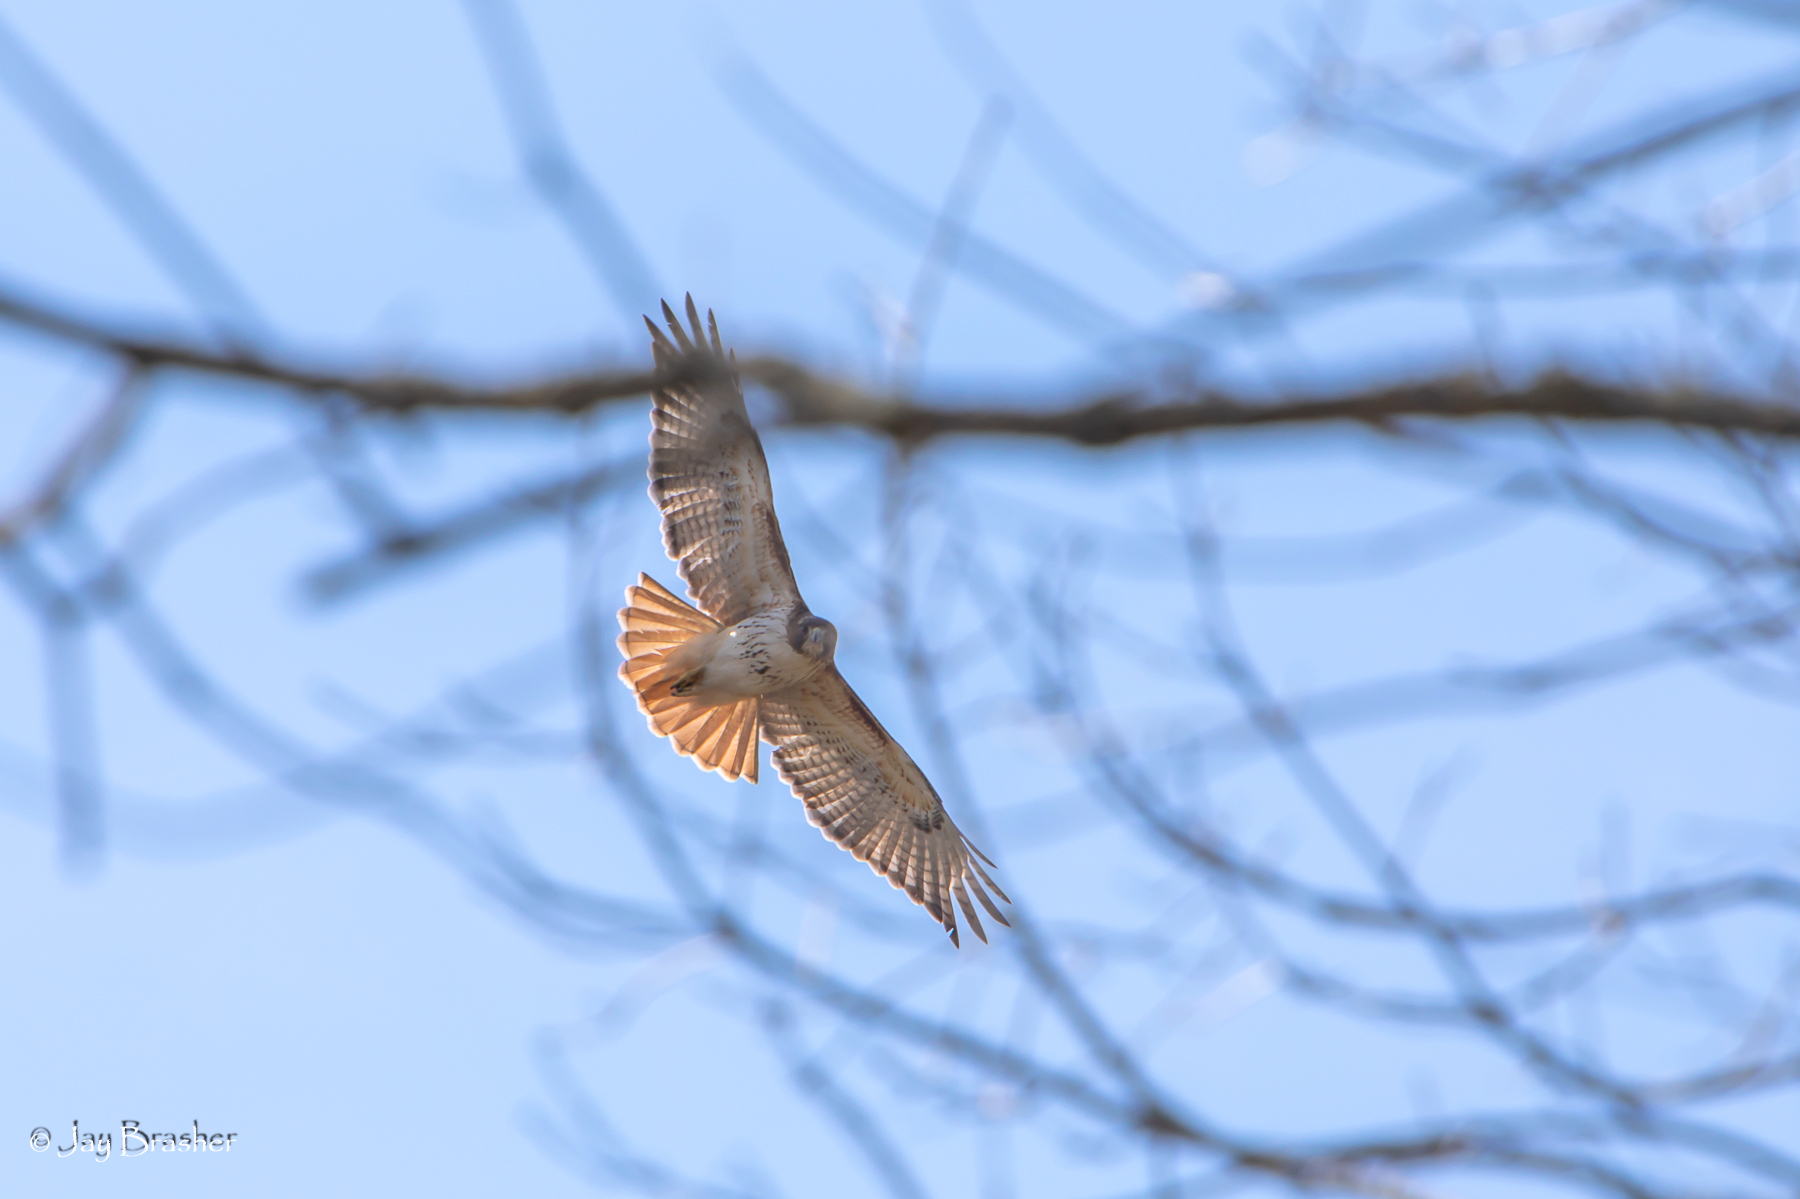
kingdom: Animalia
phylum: Chordata
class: Aves
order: Accipitriformes
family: Accipitridae
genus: Buteo
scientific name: Buteo jamaicensis
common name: Red-tailed hawk
